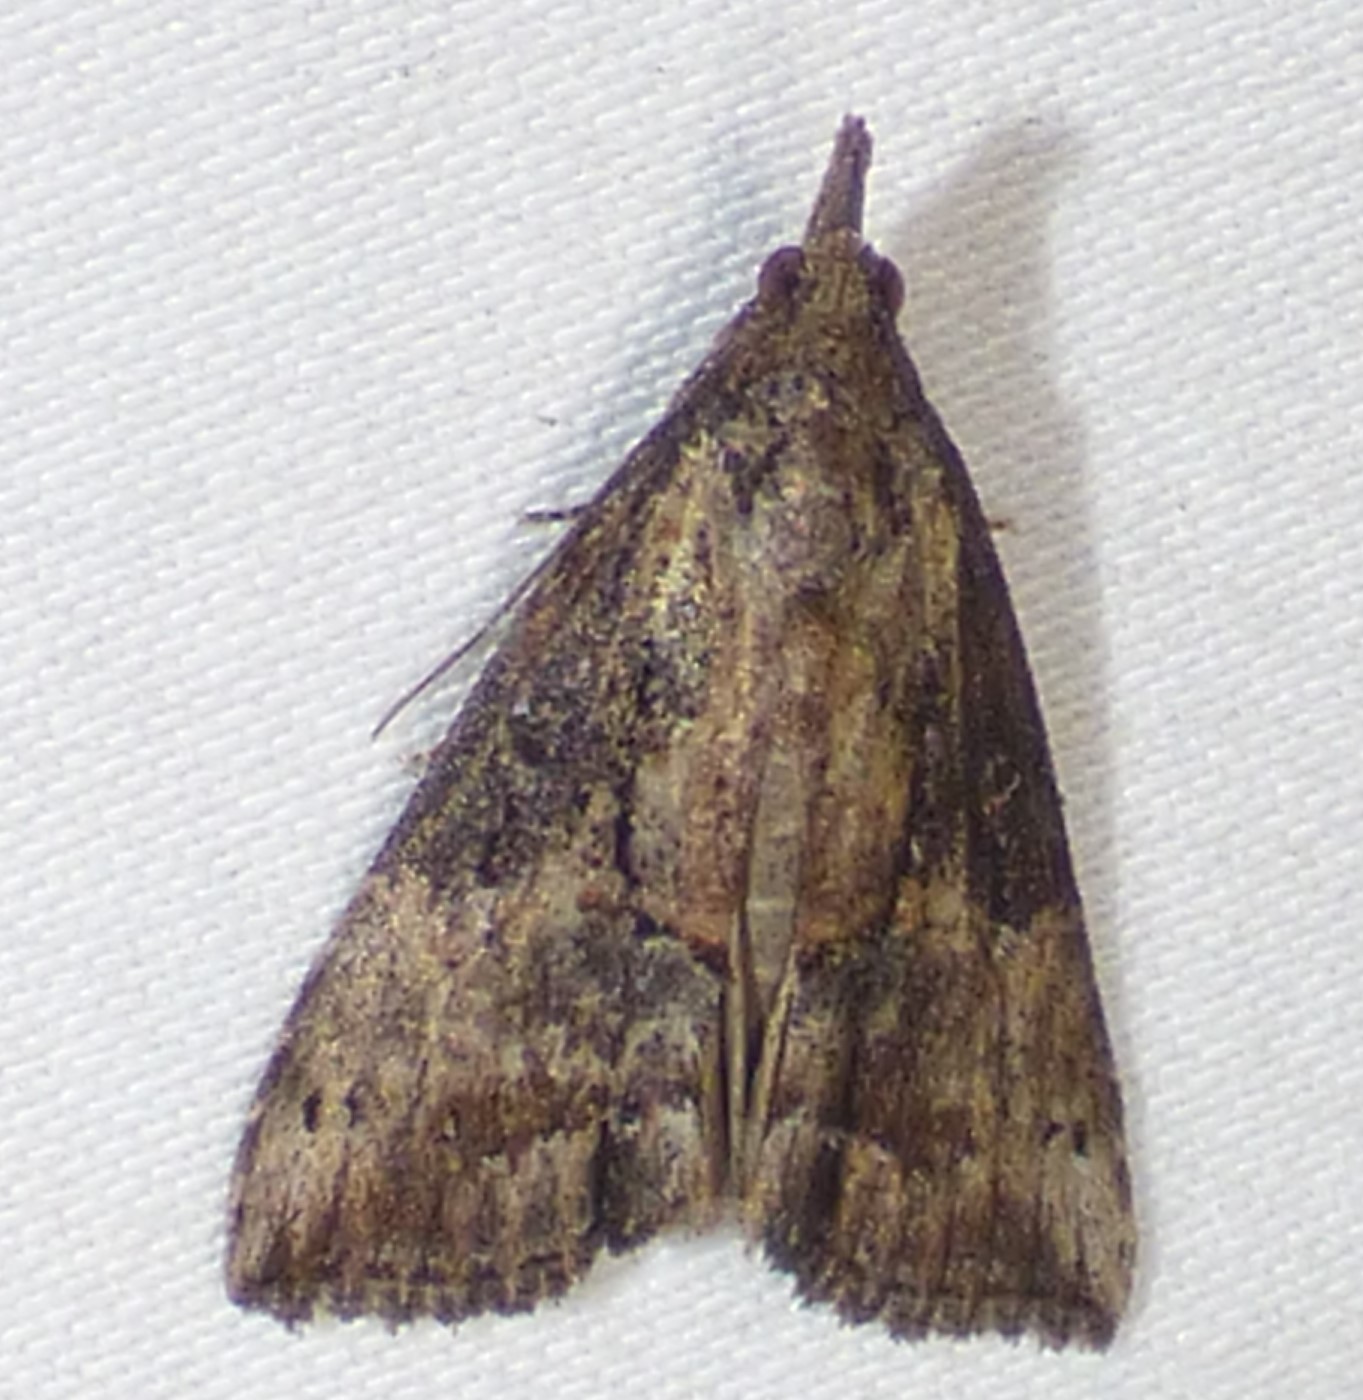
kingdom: Animalia
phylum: Arthropoda
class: Insecta
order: Lepidoptera
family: Erebidae
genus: Hypena
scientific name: Hypena scabra
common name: Green cloverworm
